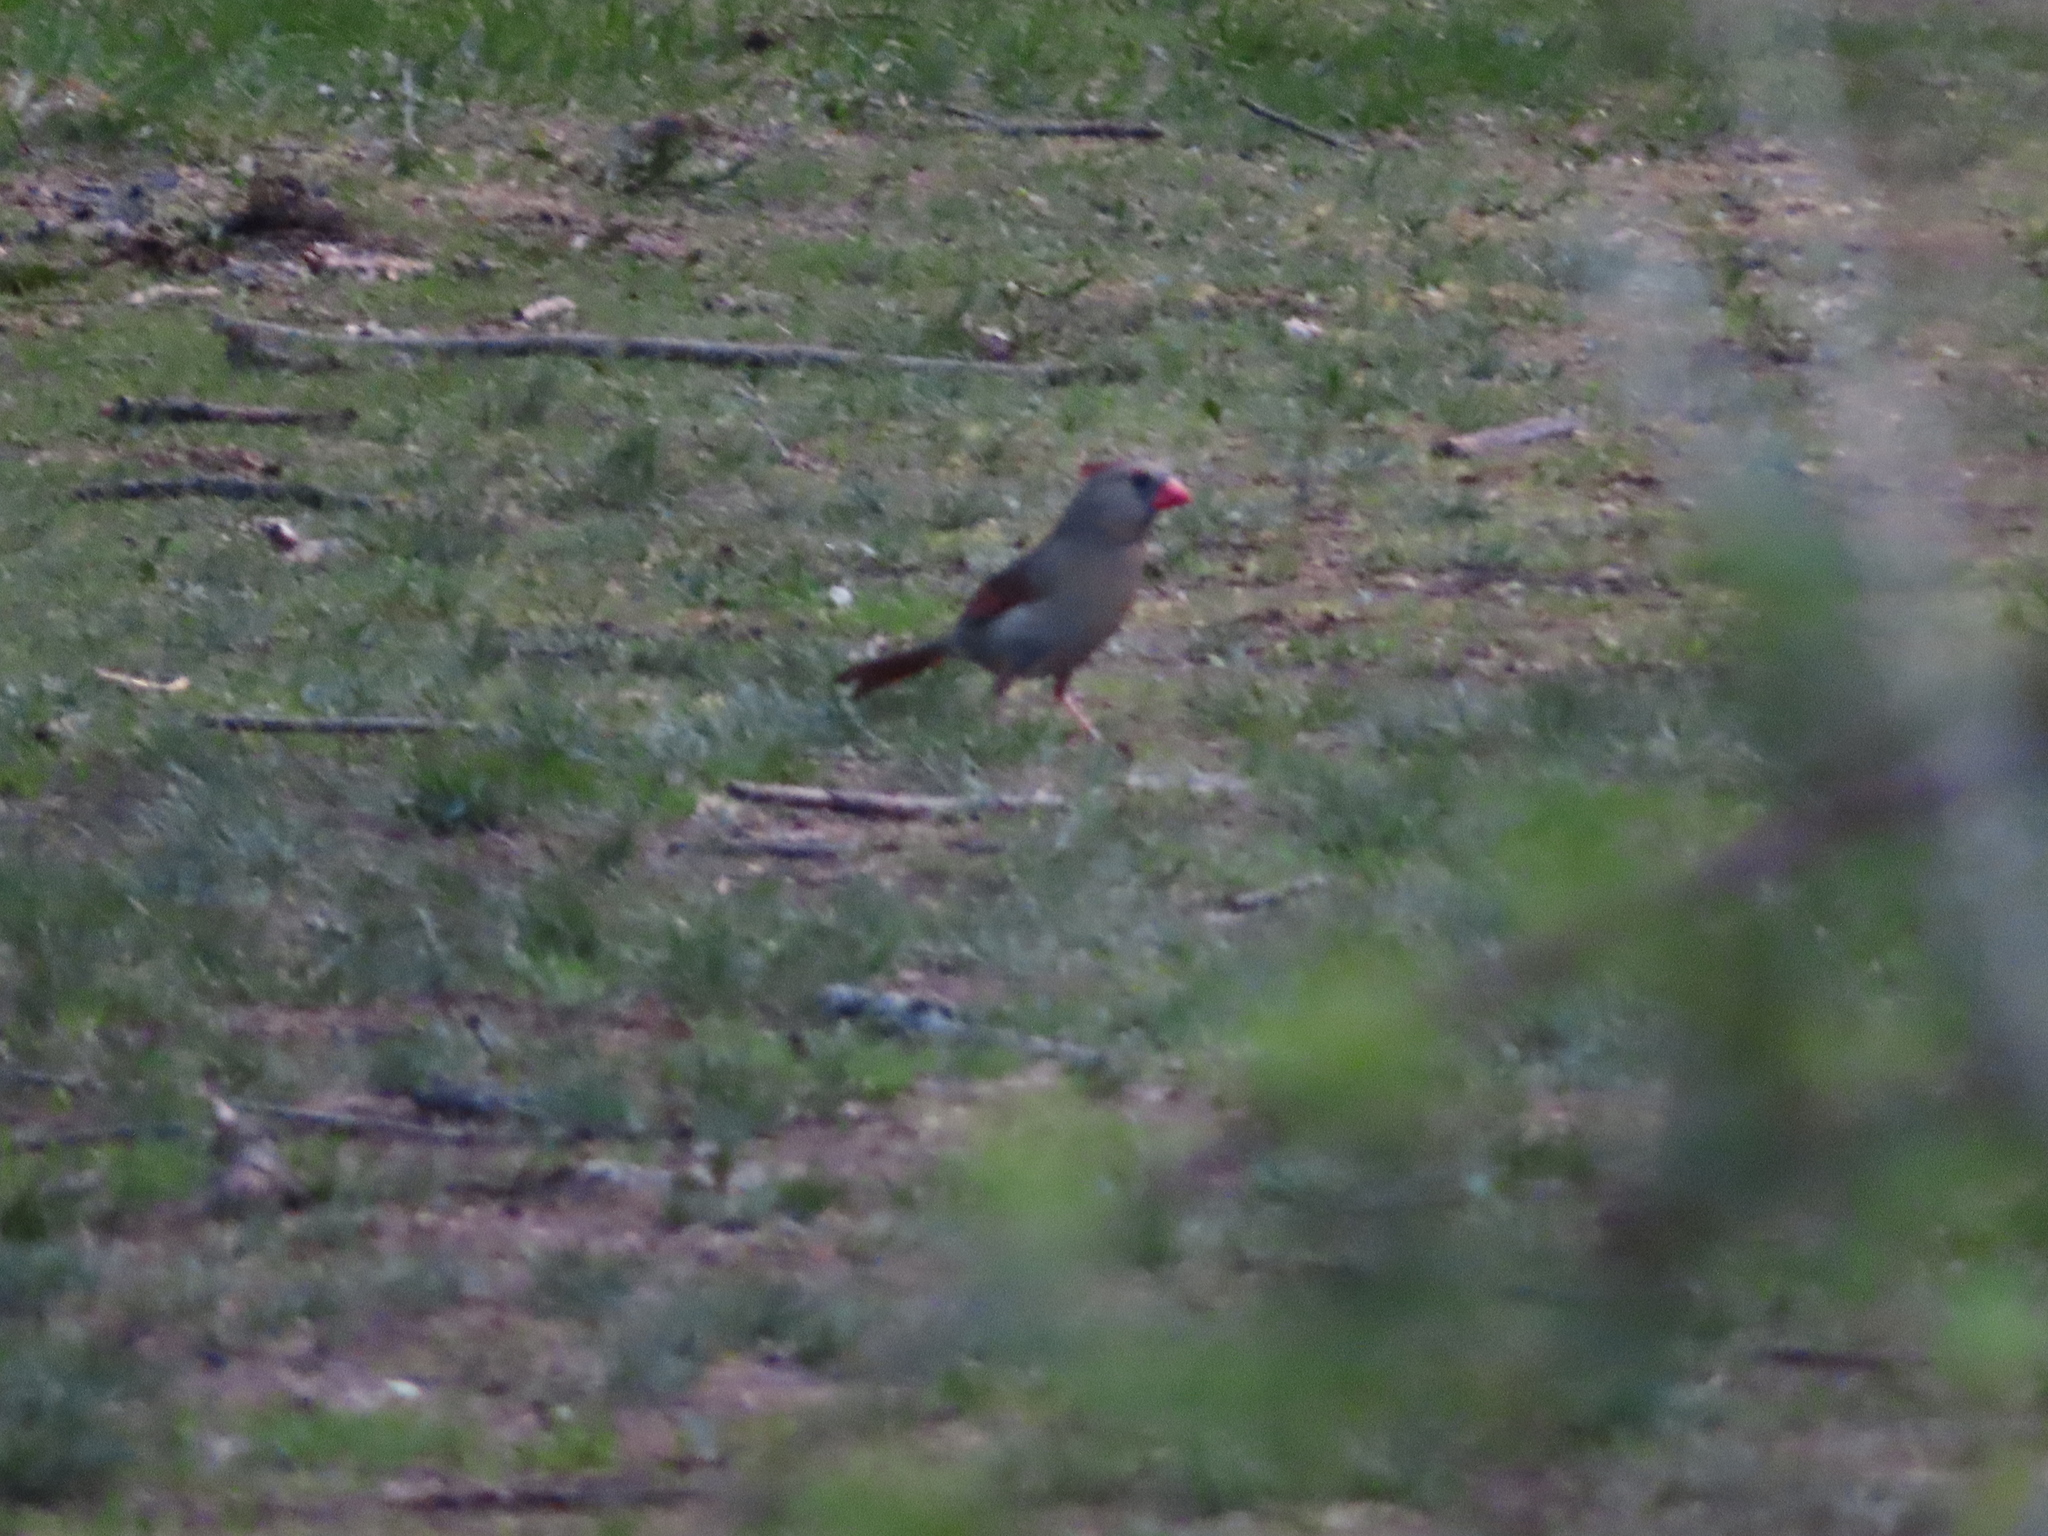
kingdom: Animalia
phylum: Chordata
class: Aves
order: Passeriformes
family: Cardinalidae
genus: Cardinalis
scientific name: Cardinalis cardinalis
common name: Northern cardinal
